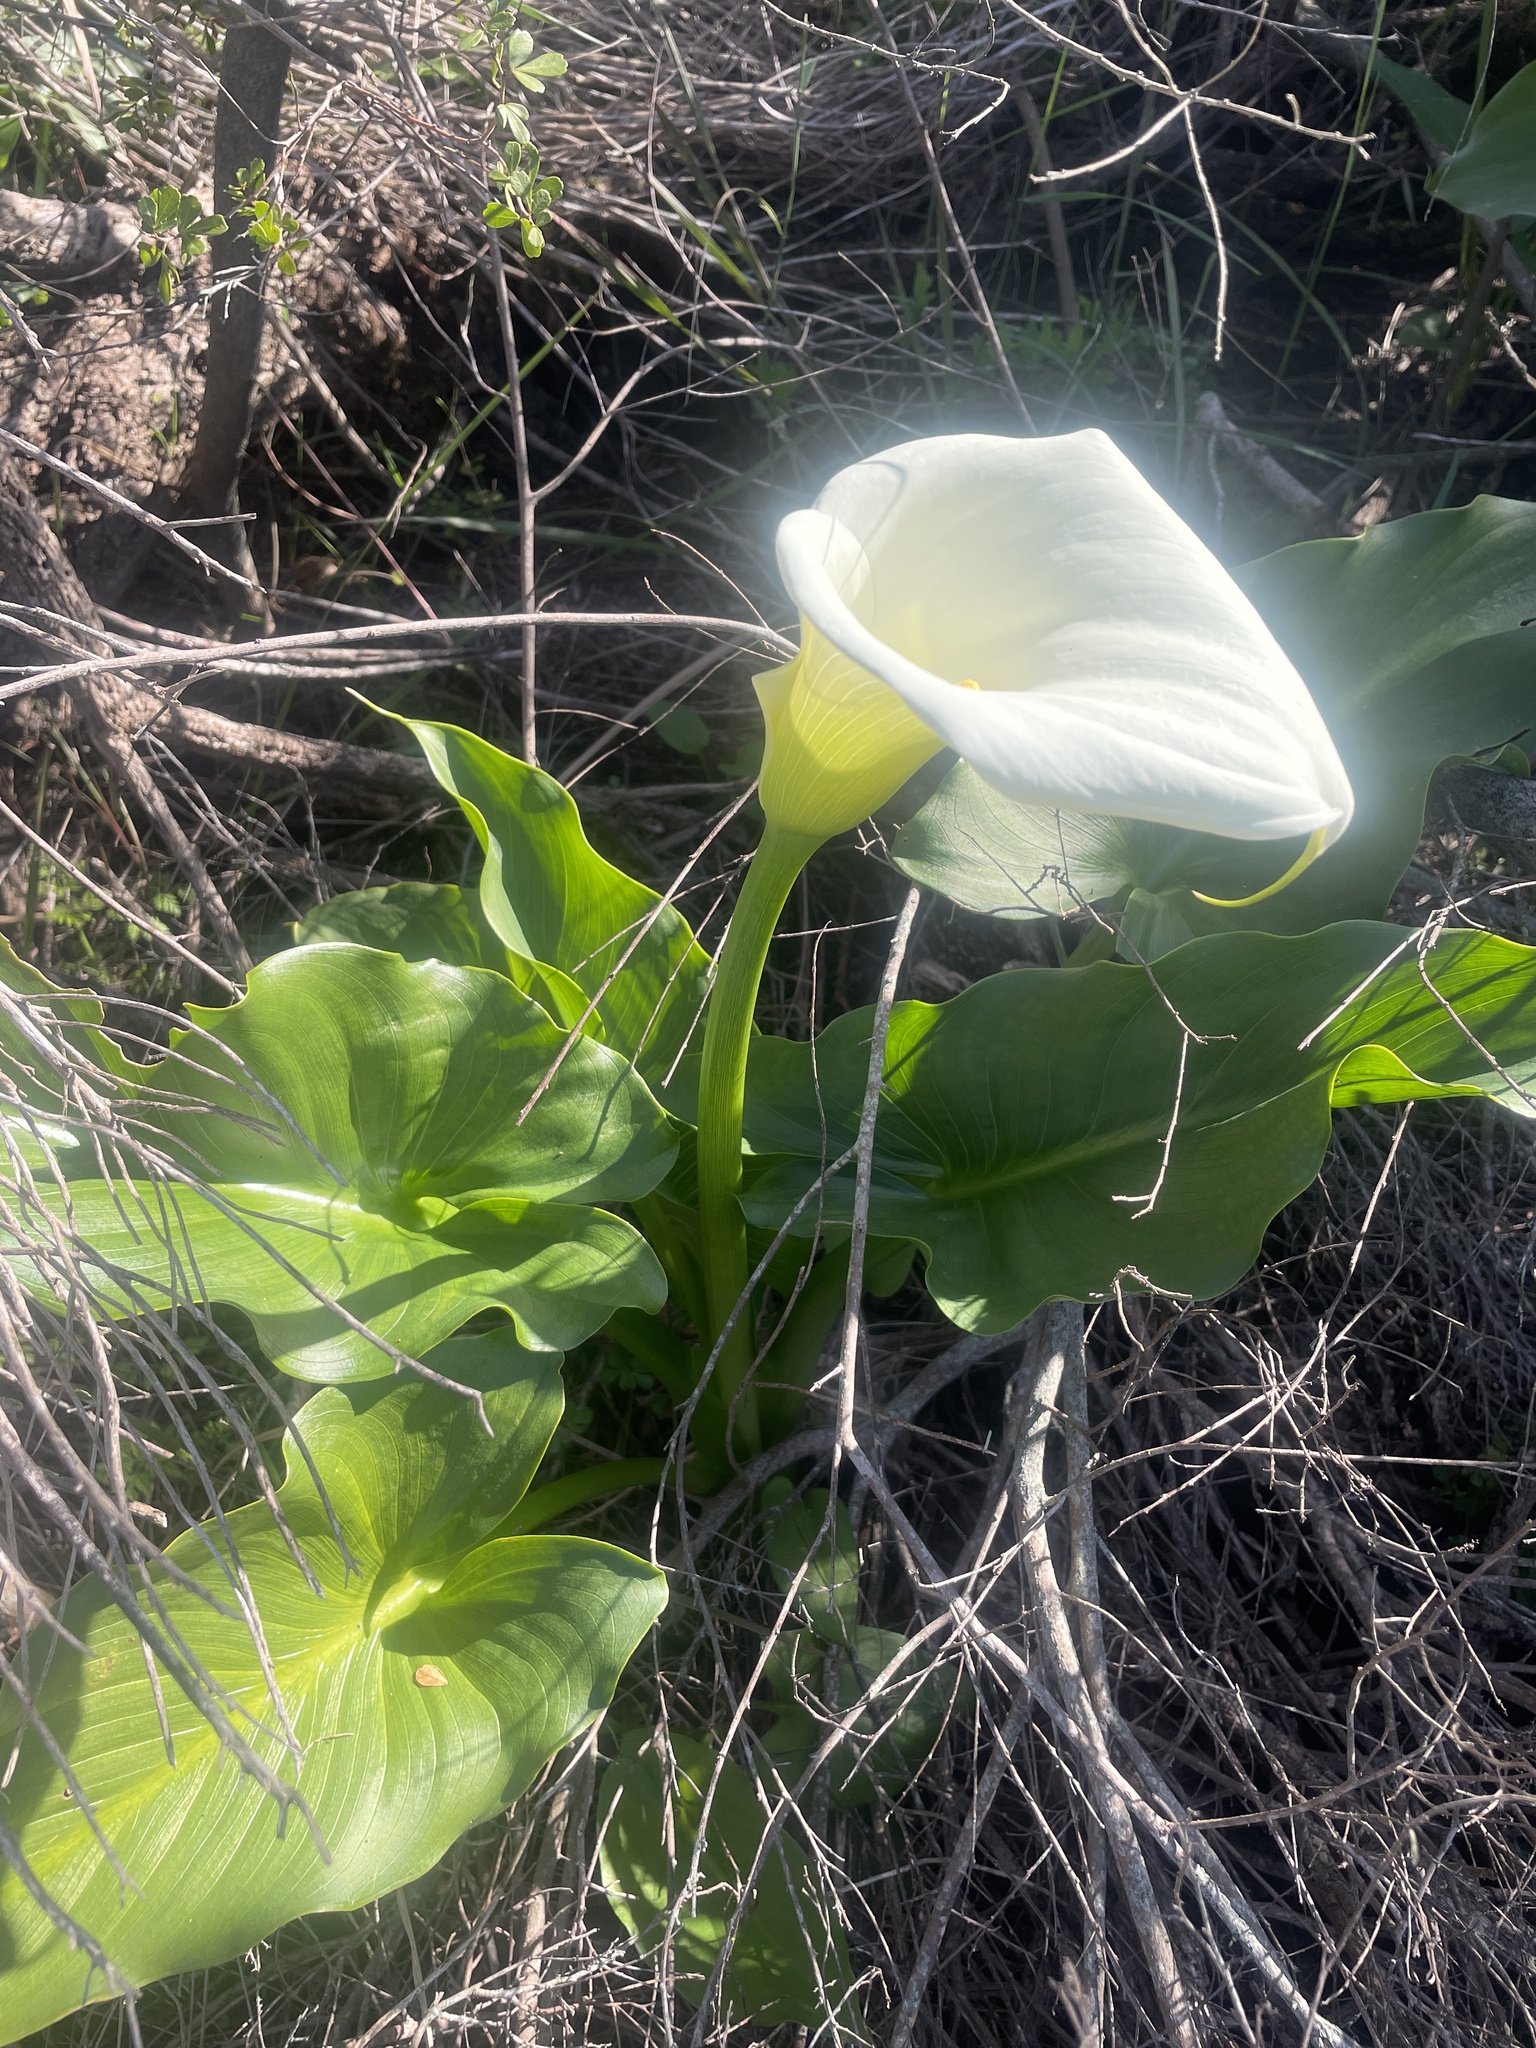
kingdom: Plantae
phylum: Tracheophyta
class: Liliopsida
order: Alismatales
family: Araceae
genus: Zantedeschia
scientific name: Zantedeschia aethiopica
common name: Altar-lily
